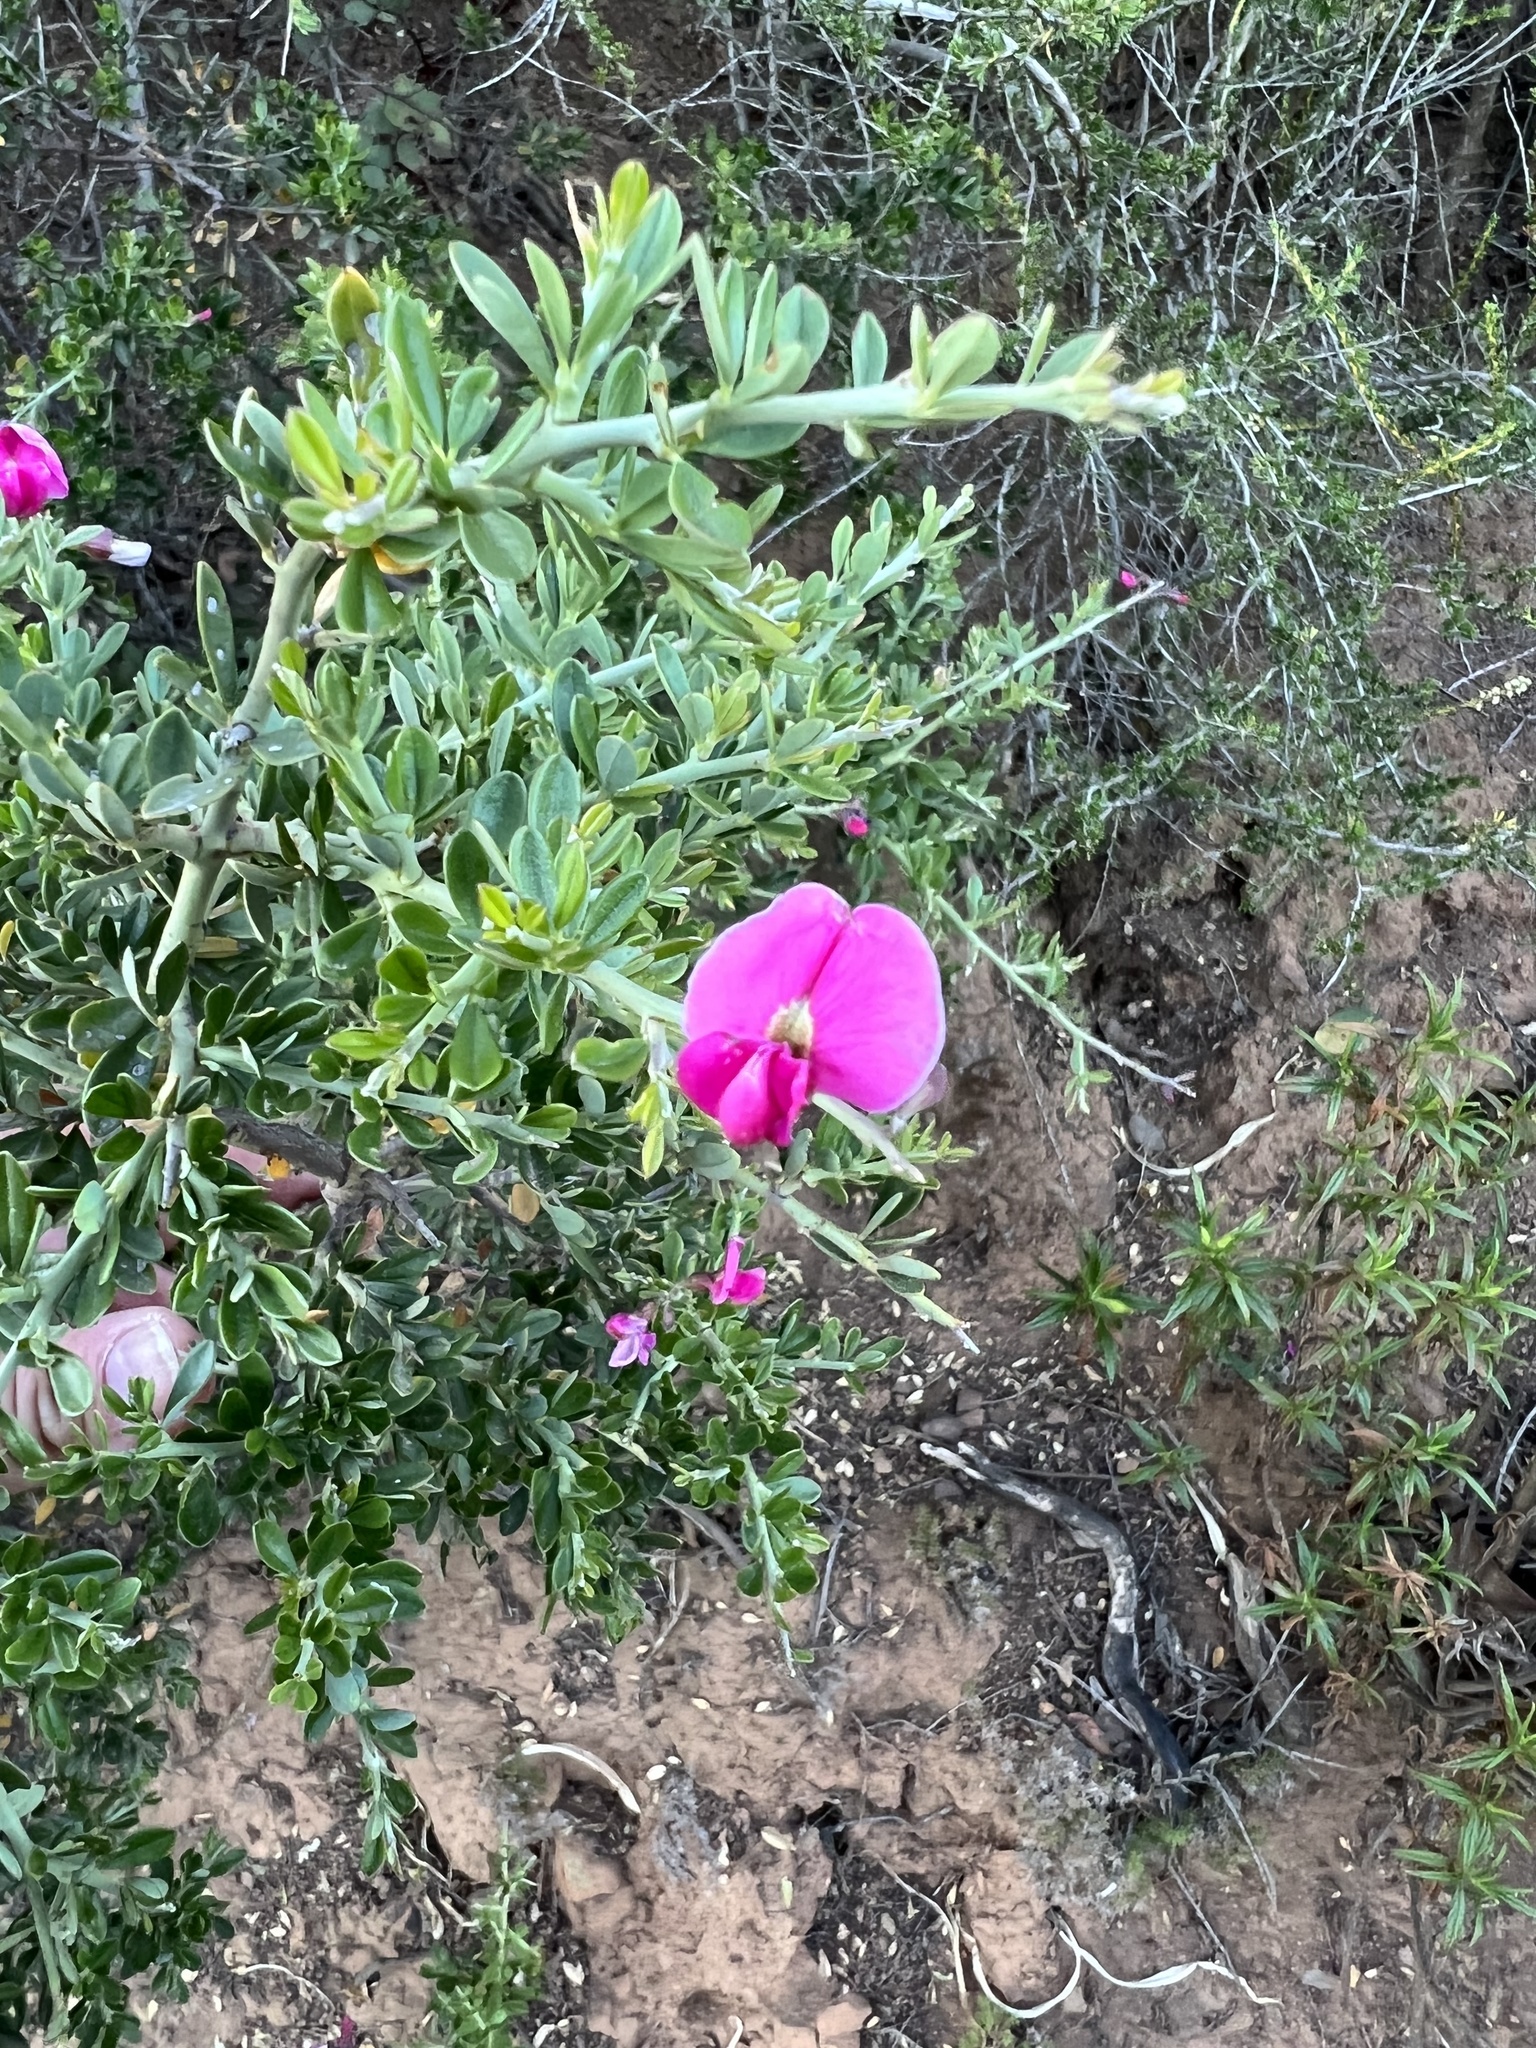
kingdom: Plantae
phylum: Tracheophyta
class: Magnoliopsida
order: Fabales
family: Fabaceae
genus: Pickeringia
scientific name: Pickeringia montana
